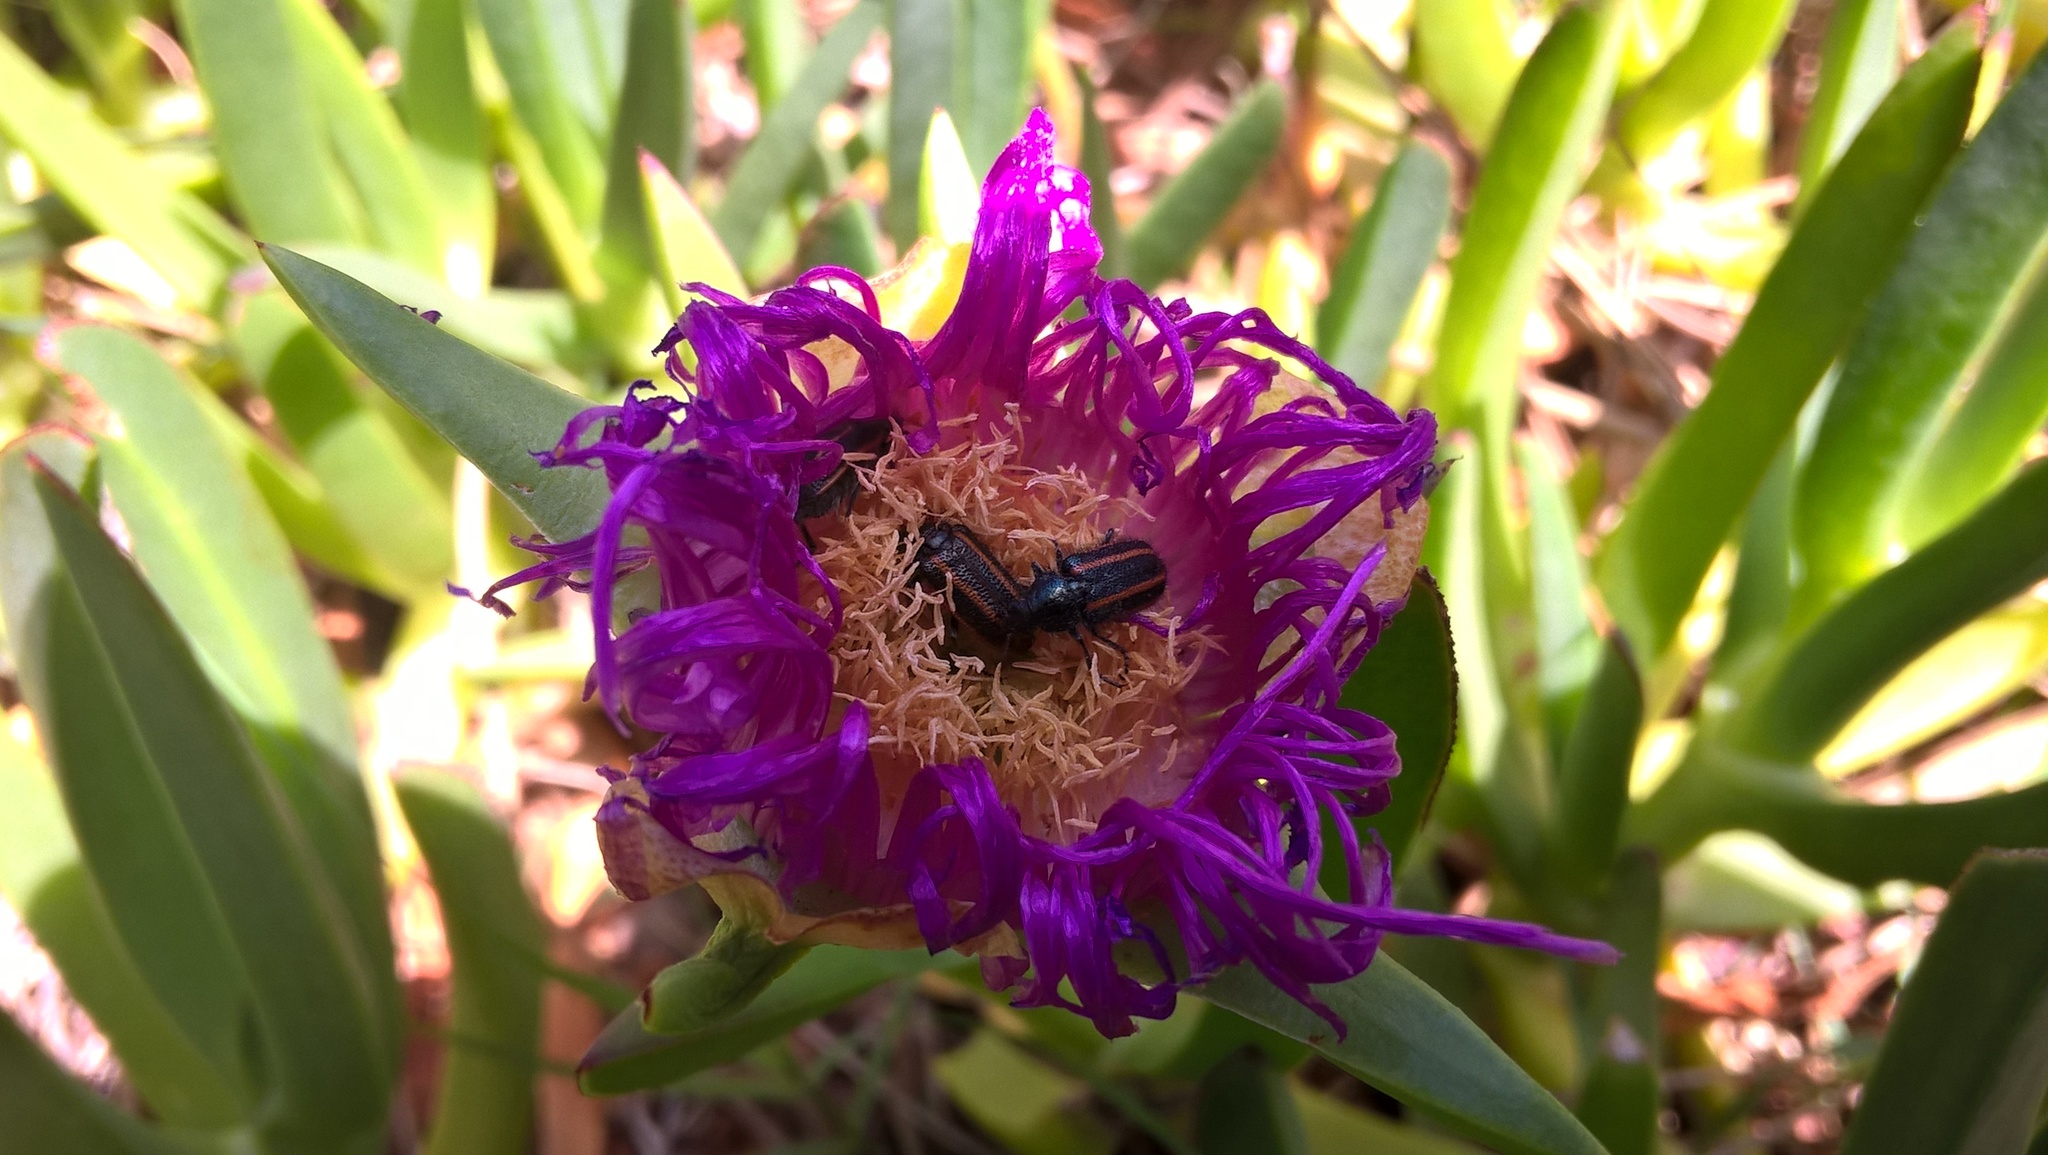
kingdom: Animalia
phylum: Arthropoda
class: Insecta
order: Coleoptera
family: Melyridae
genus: Astylus
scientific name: Astylus
